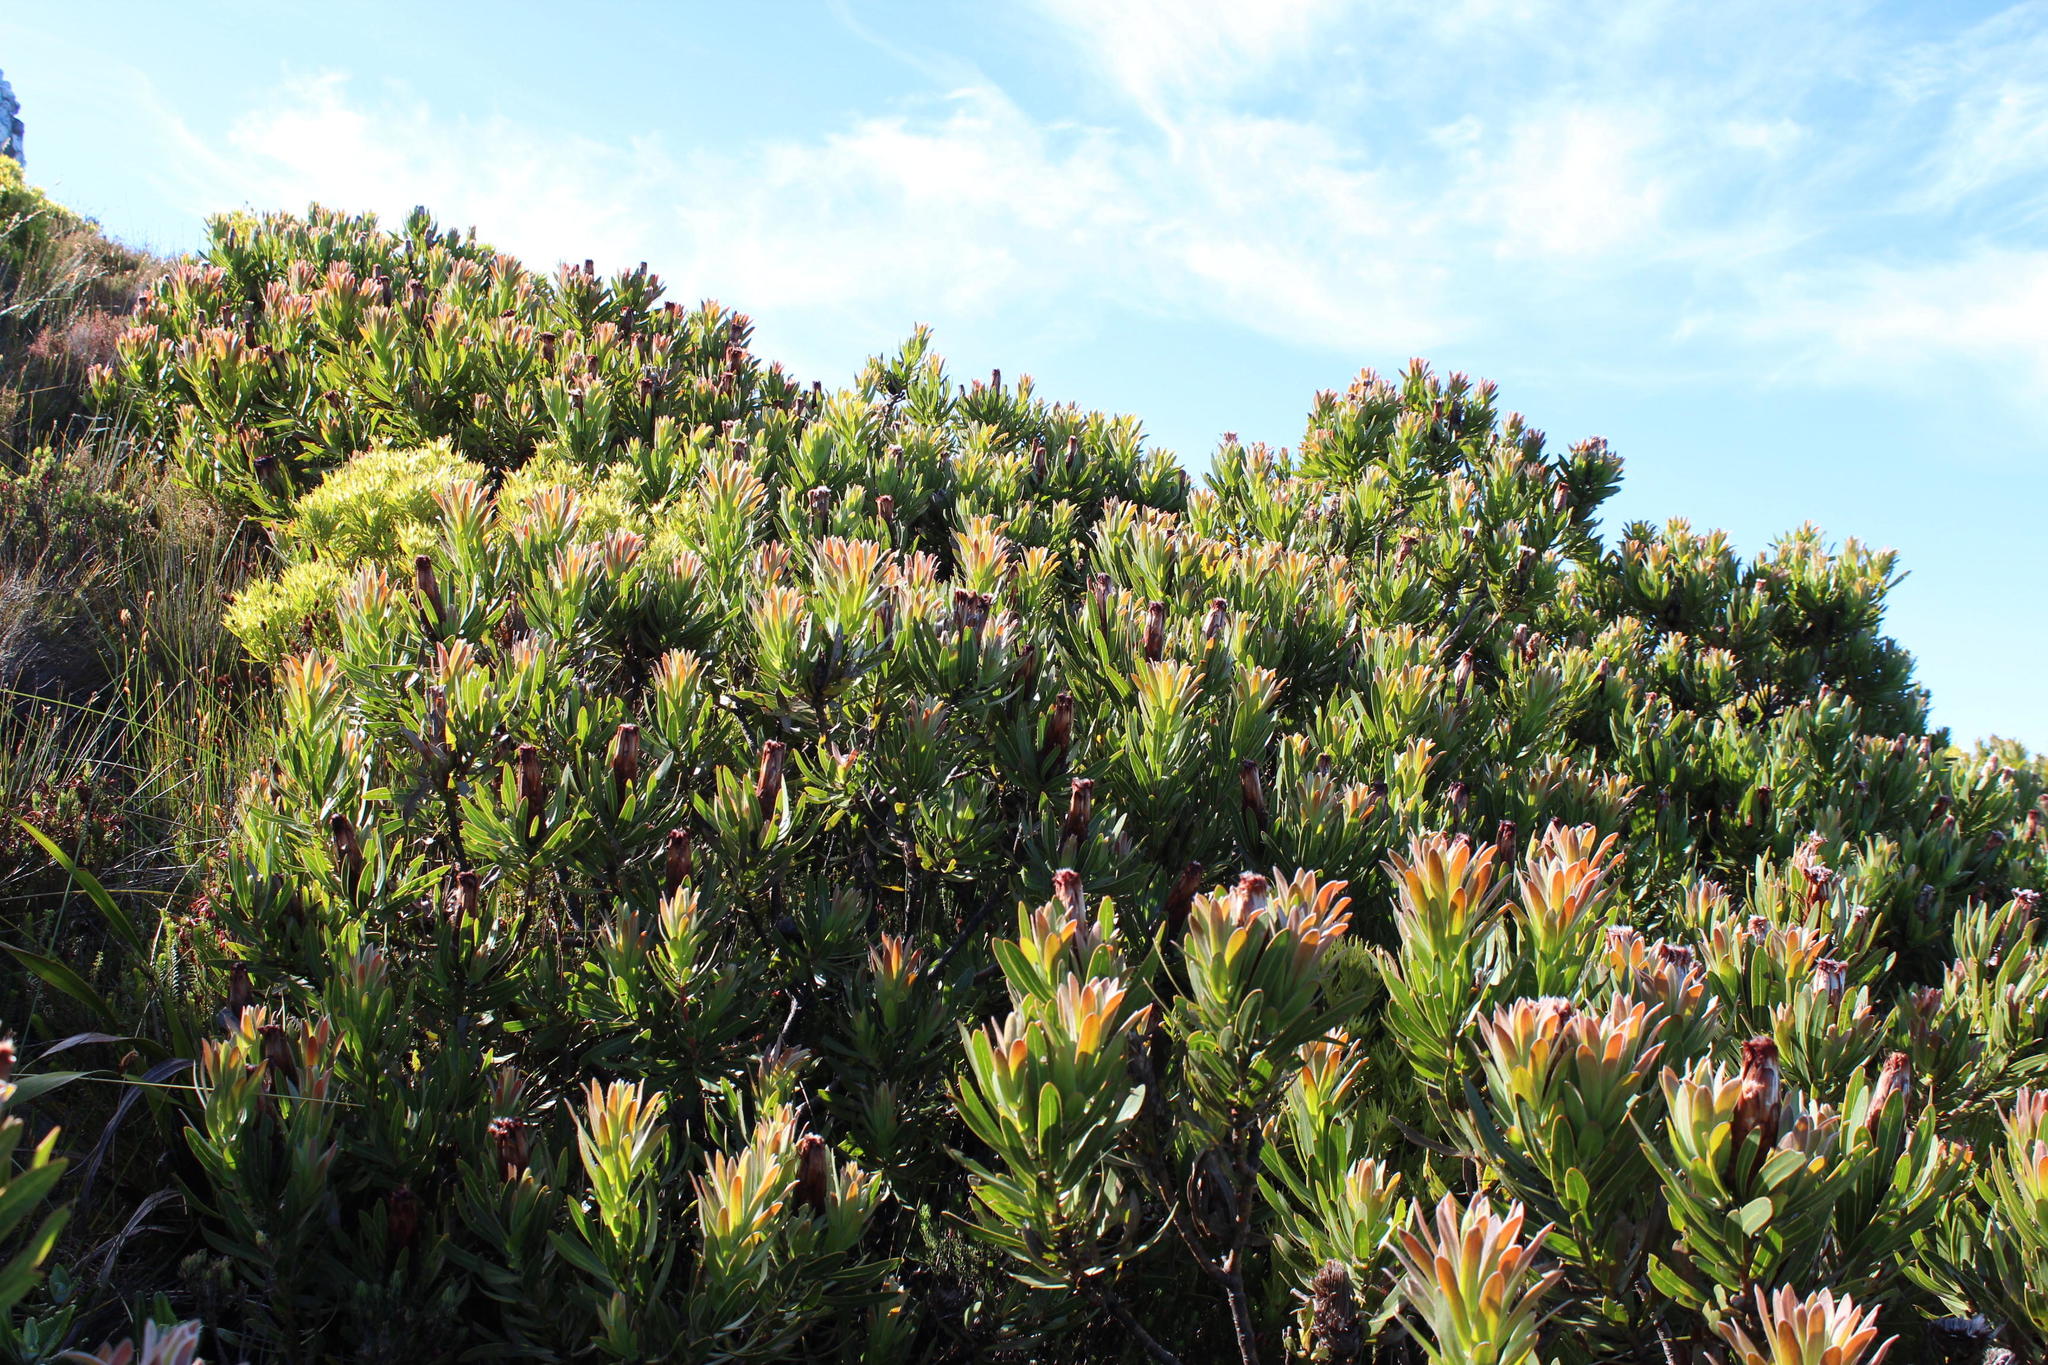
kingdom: Plantae
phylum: Tracheophyta
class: Magnoliopsida
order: Proteales
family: Proteaceae
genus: Protea
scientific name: Protea lepidocarpodendron
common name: Black-bearded protea
